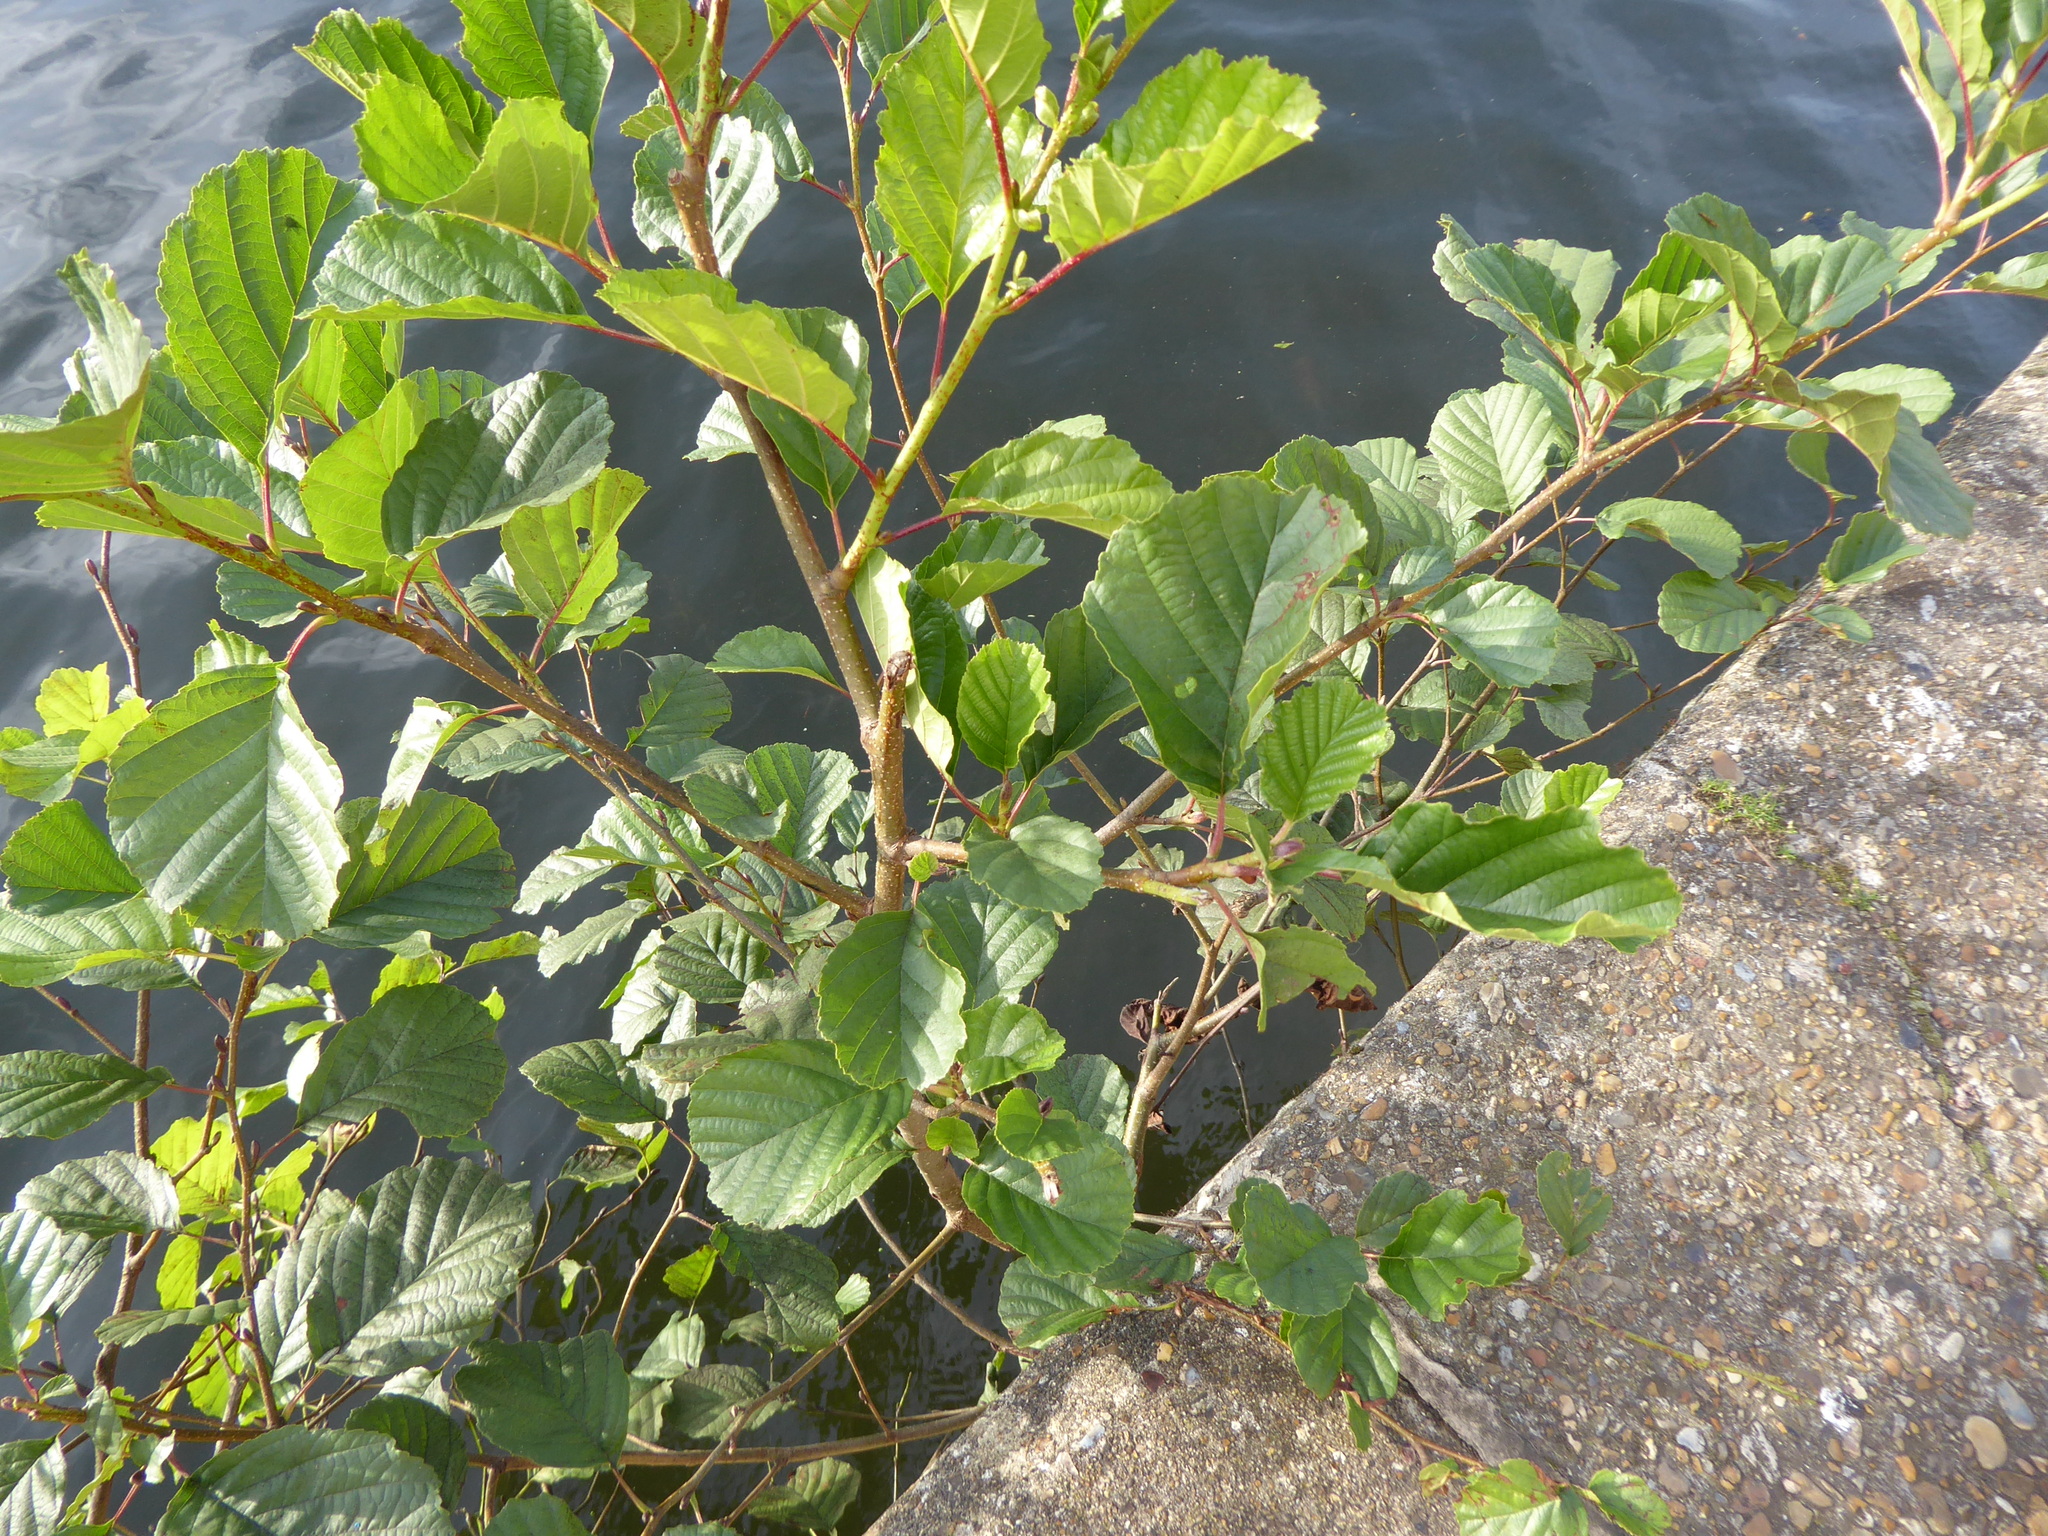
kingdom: Plantae
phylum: Tracheophyta
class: Magnoliopsida
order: Fagales
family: Betulaceae
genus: Alnus
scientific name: Alnus glutinosa
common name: Black alder
